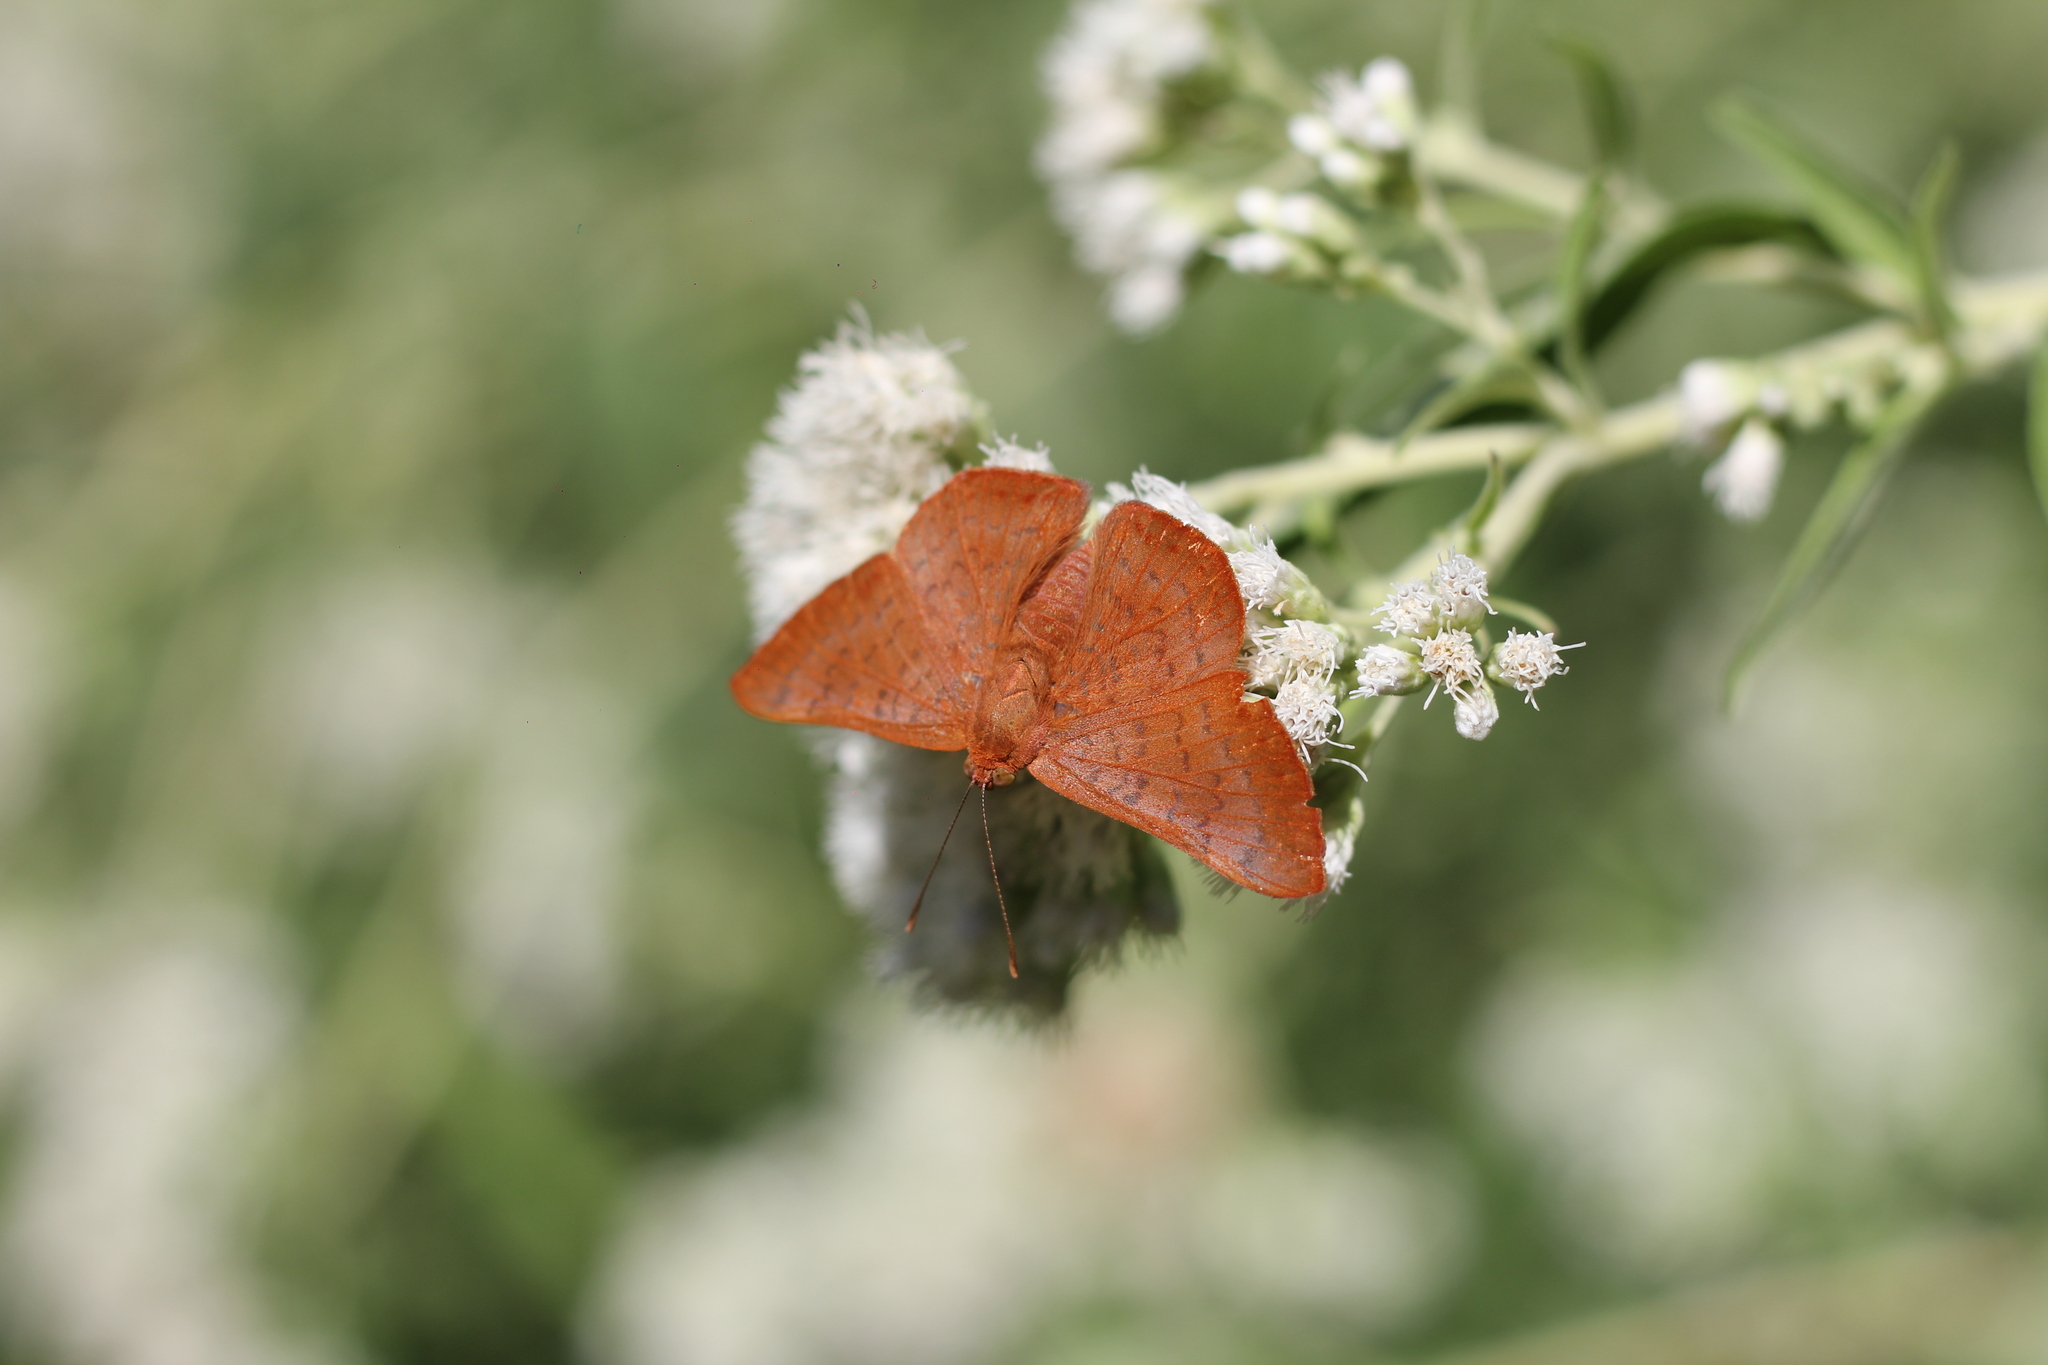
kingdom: Animalia
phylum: Arthropoda
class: Insecta
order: Lepidoptera
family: Lycaenidae
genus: Emesis
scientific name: Emesis russula
